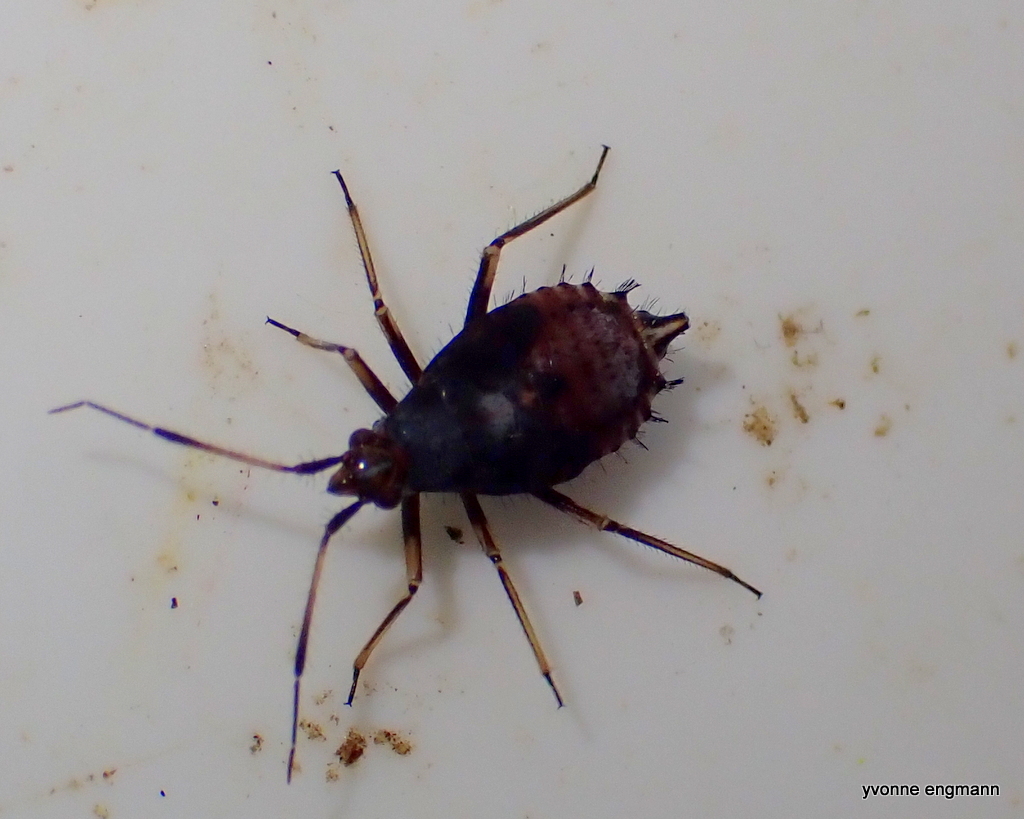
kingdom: Animalia
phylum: Arthropoda
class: Insecta
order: Hemiptera
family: Miridae
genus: Deraeocoris
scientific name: Deraeocoris ruber
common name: Plant bug
